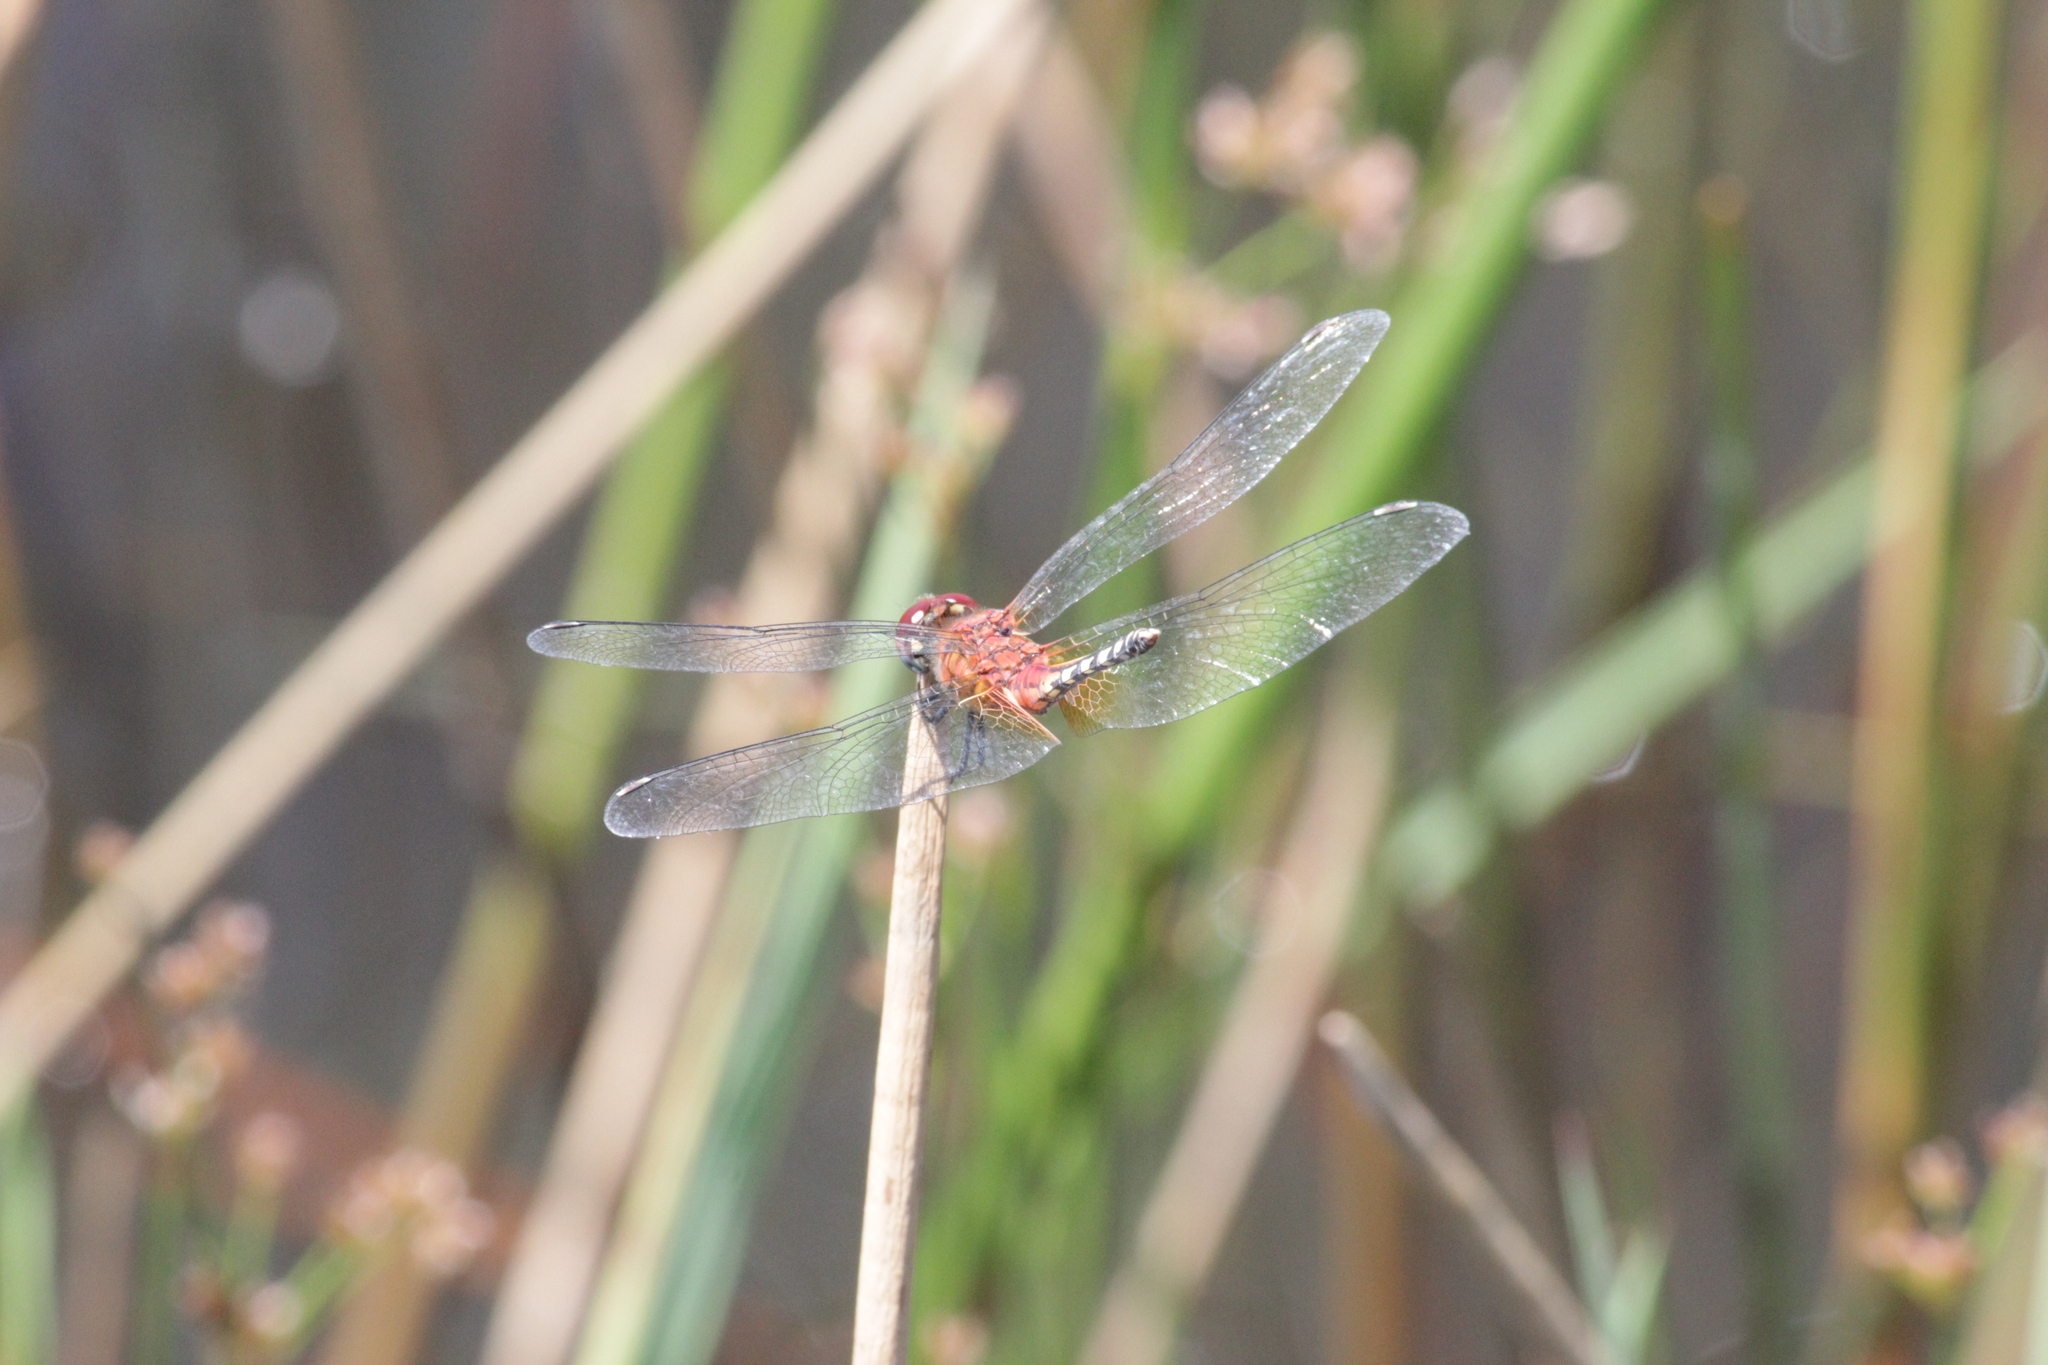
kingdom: Animalia
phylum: Arthropoda
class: Insecta
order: Odonata
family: Libellulidae
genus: Diplacodes
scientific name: Diplacodes luminans
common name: Barbet percher
